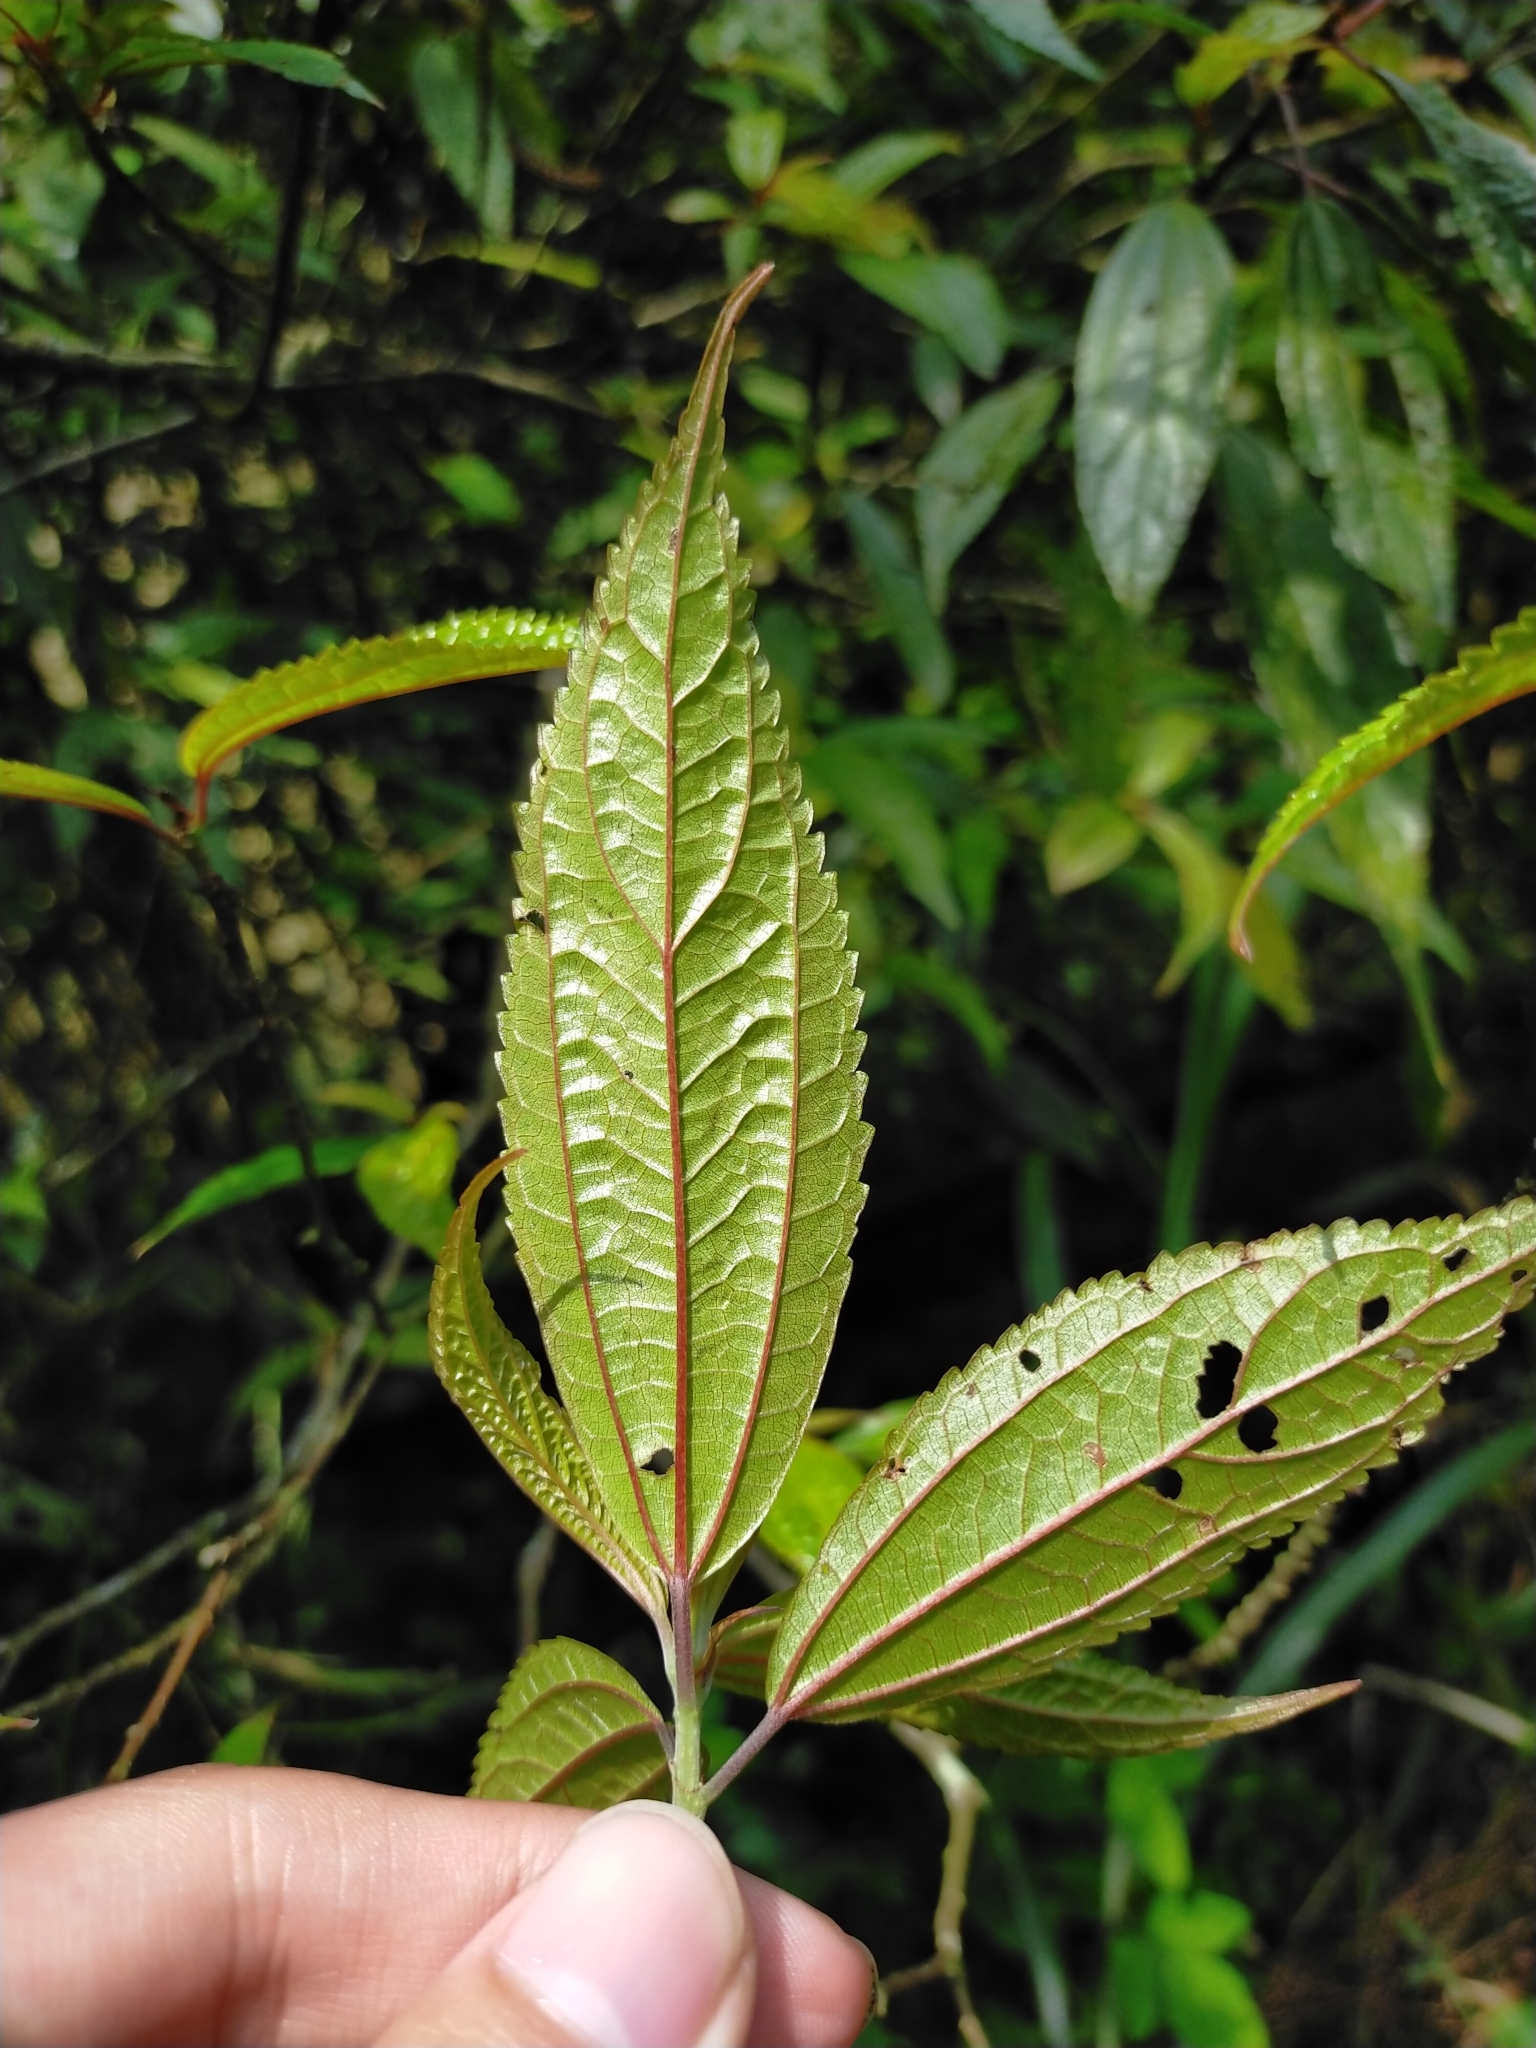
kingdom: Plantae
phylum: Tracheophyta
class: Magnoliopsida
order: Rosales
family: Urticaceae
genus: Oreocnide
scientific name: Oreocnide pedunculata
